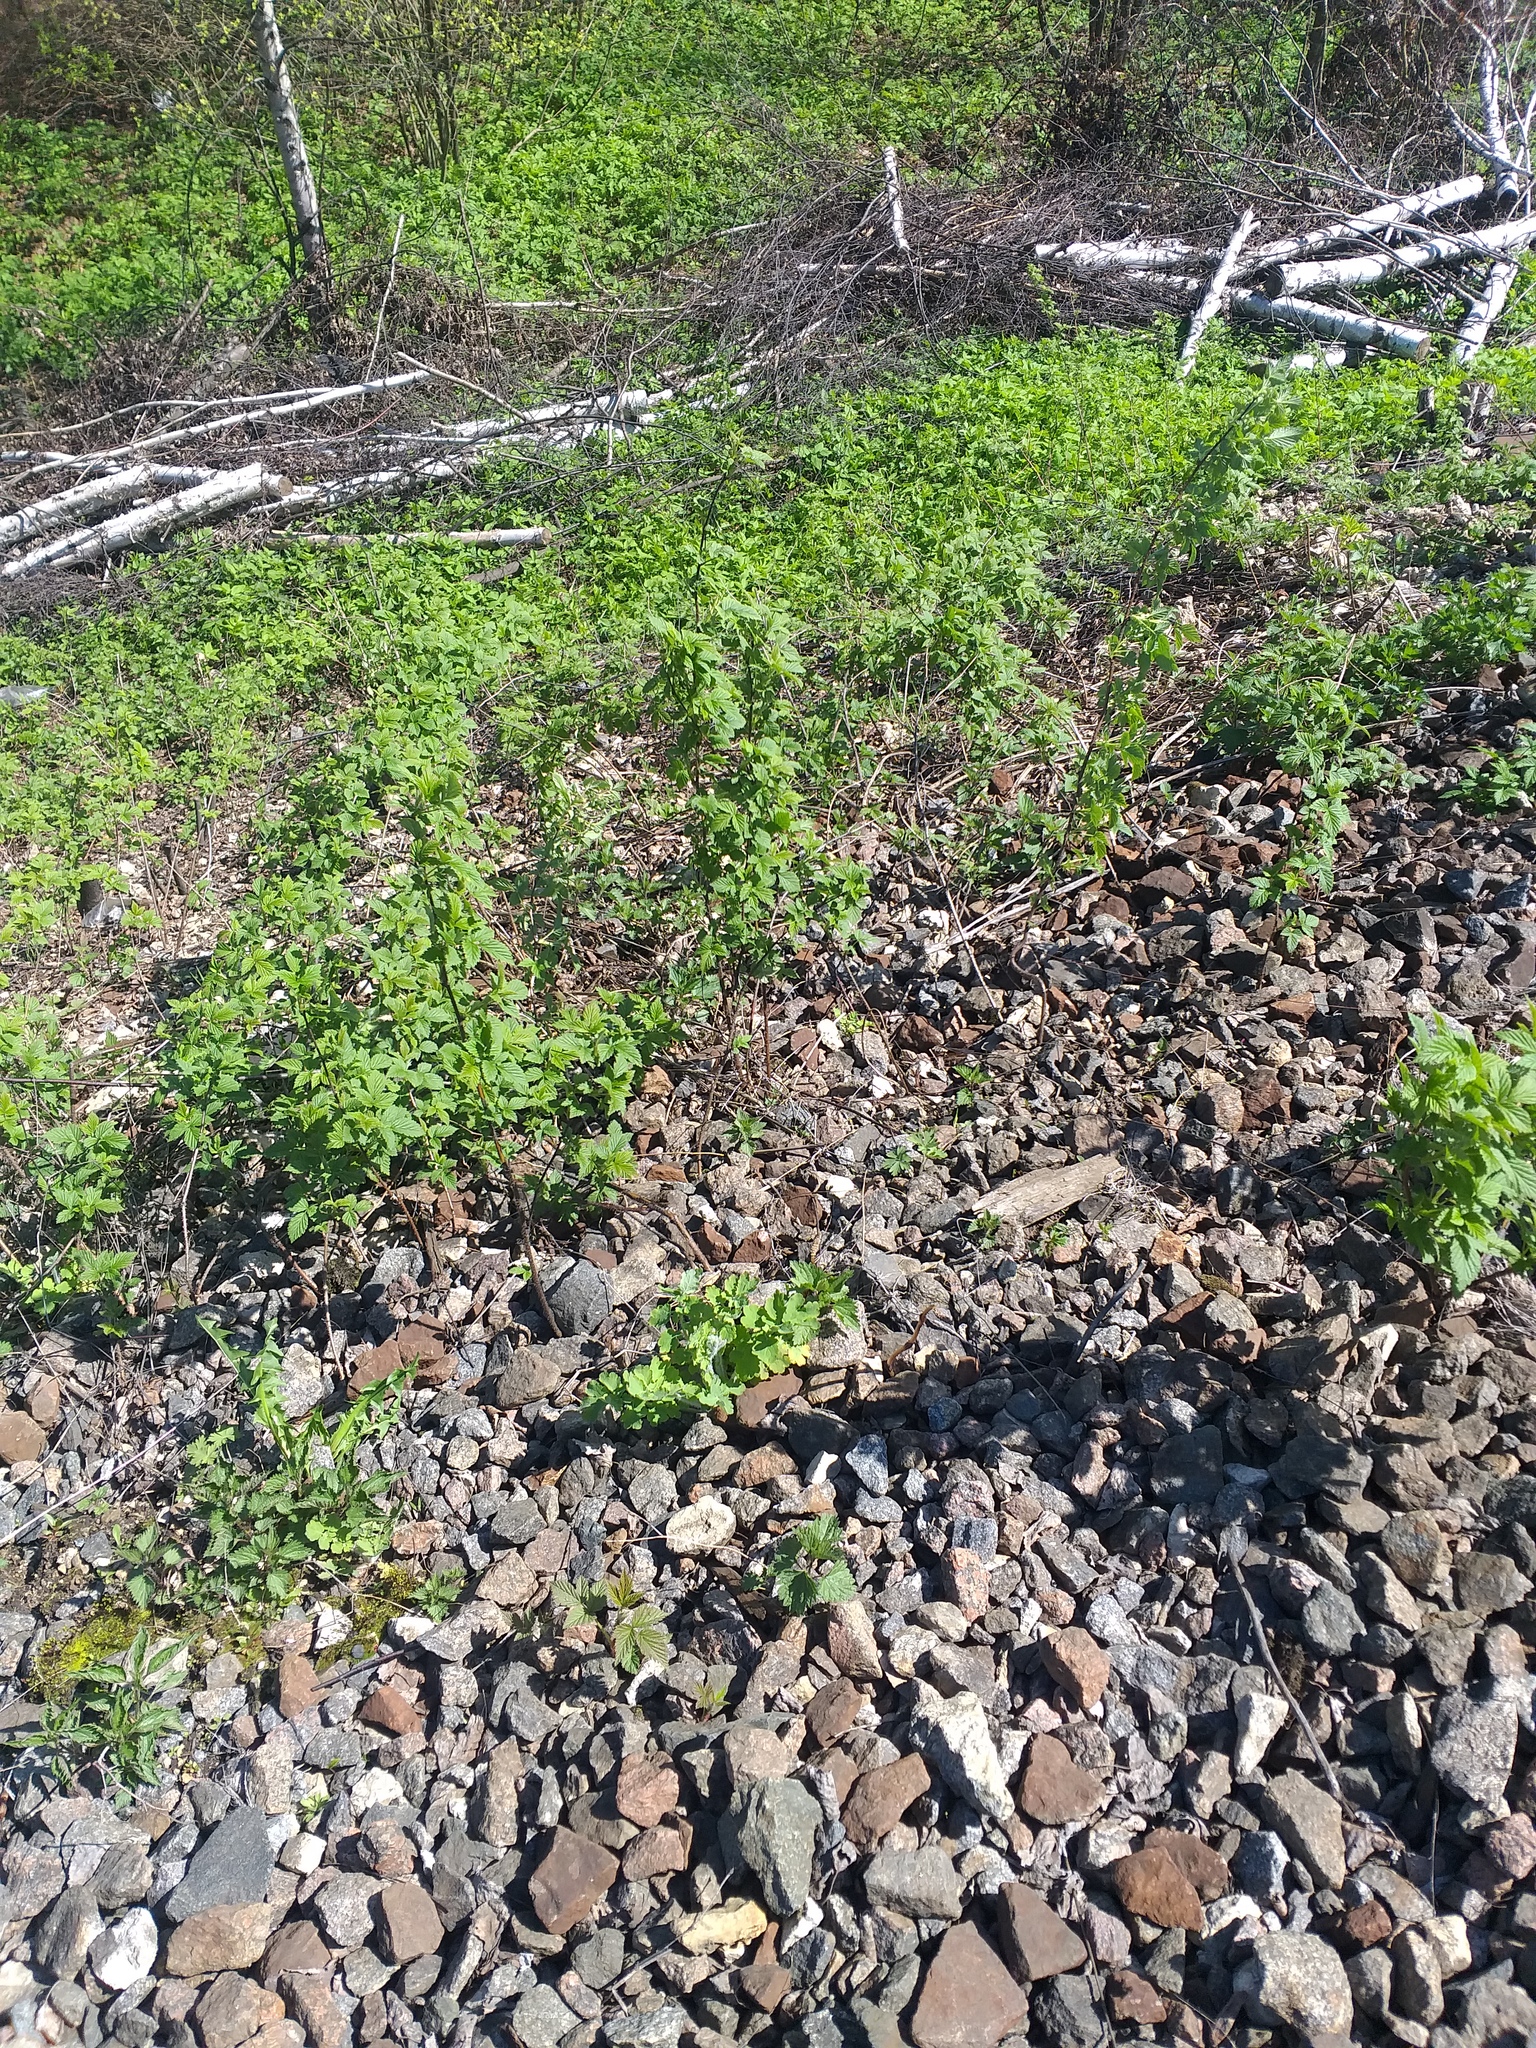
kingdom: Plantae
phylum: Tracheophyta
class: Magnoliopsida
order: Rosales
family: Rosaceae
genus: Rubus
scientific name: Rubus idaeus
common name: Raspberry
